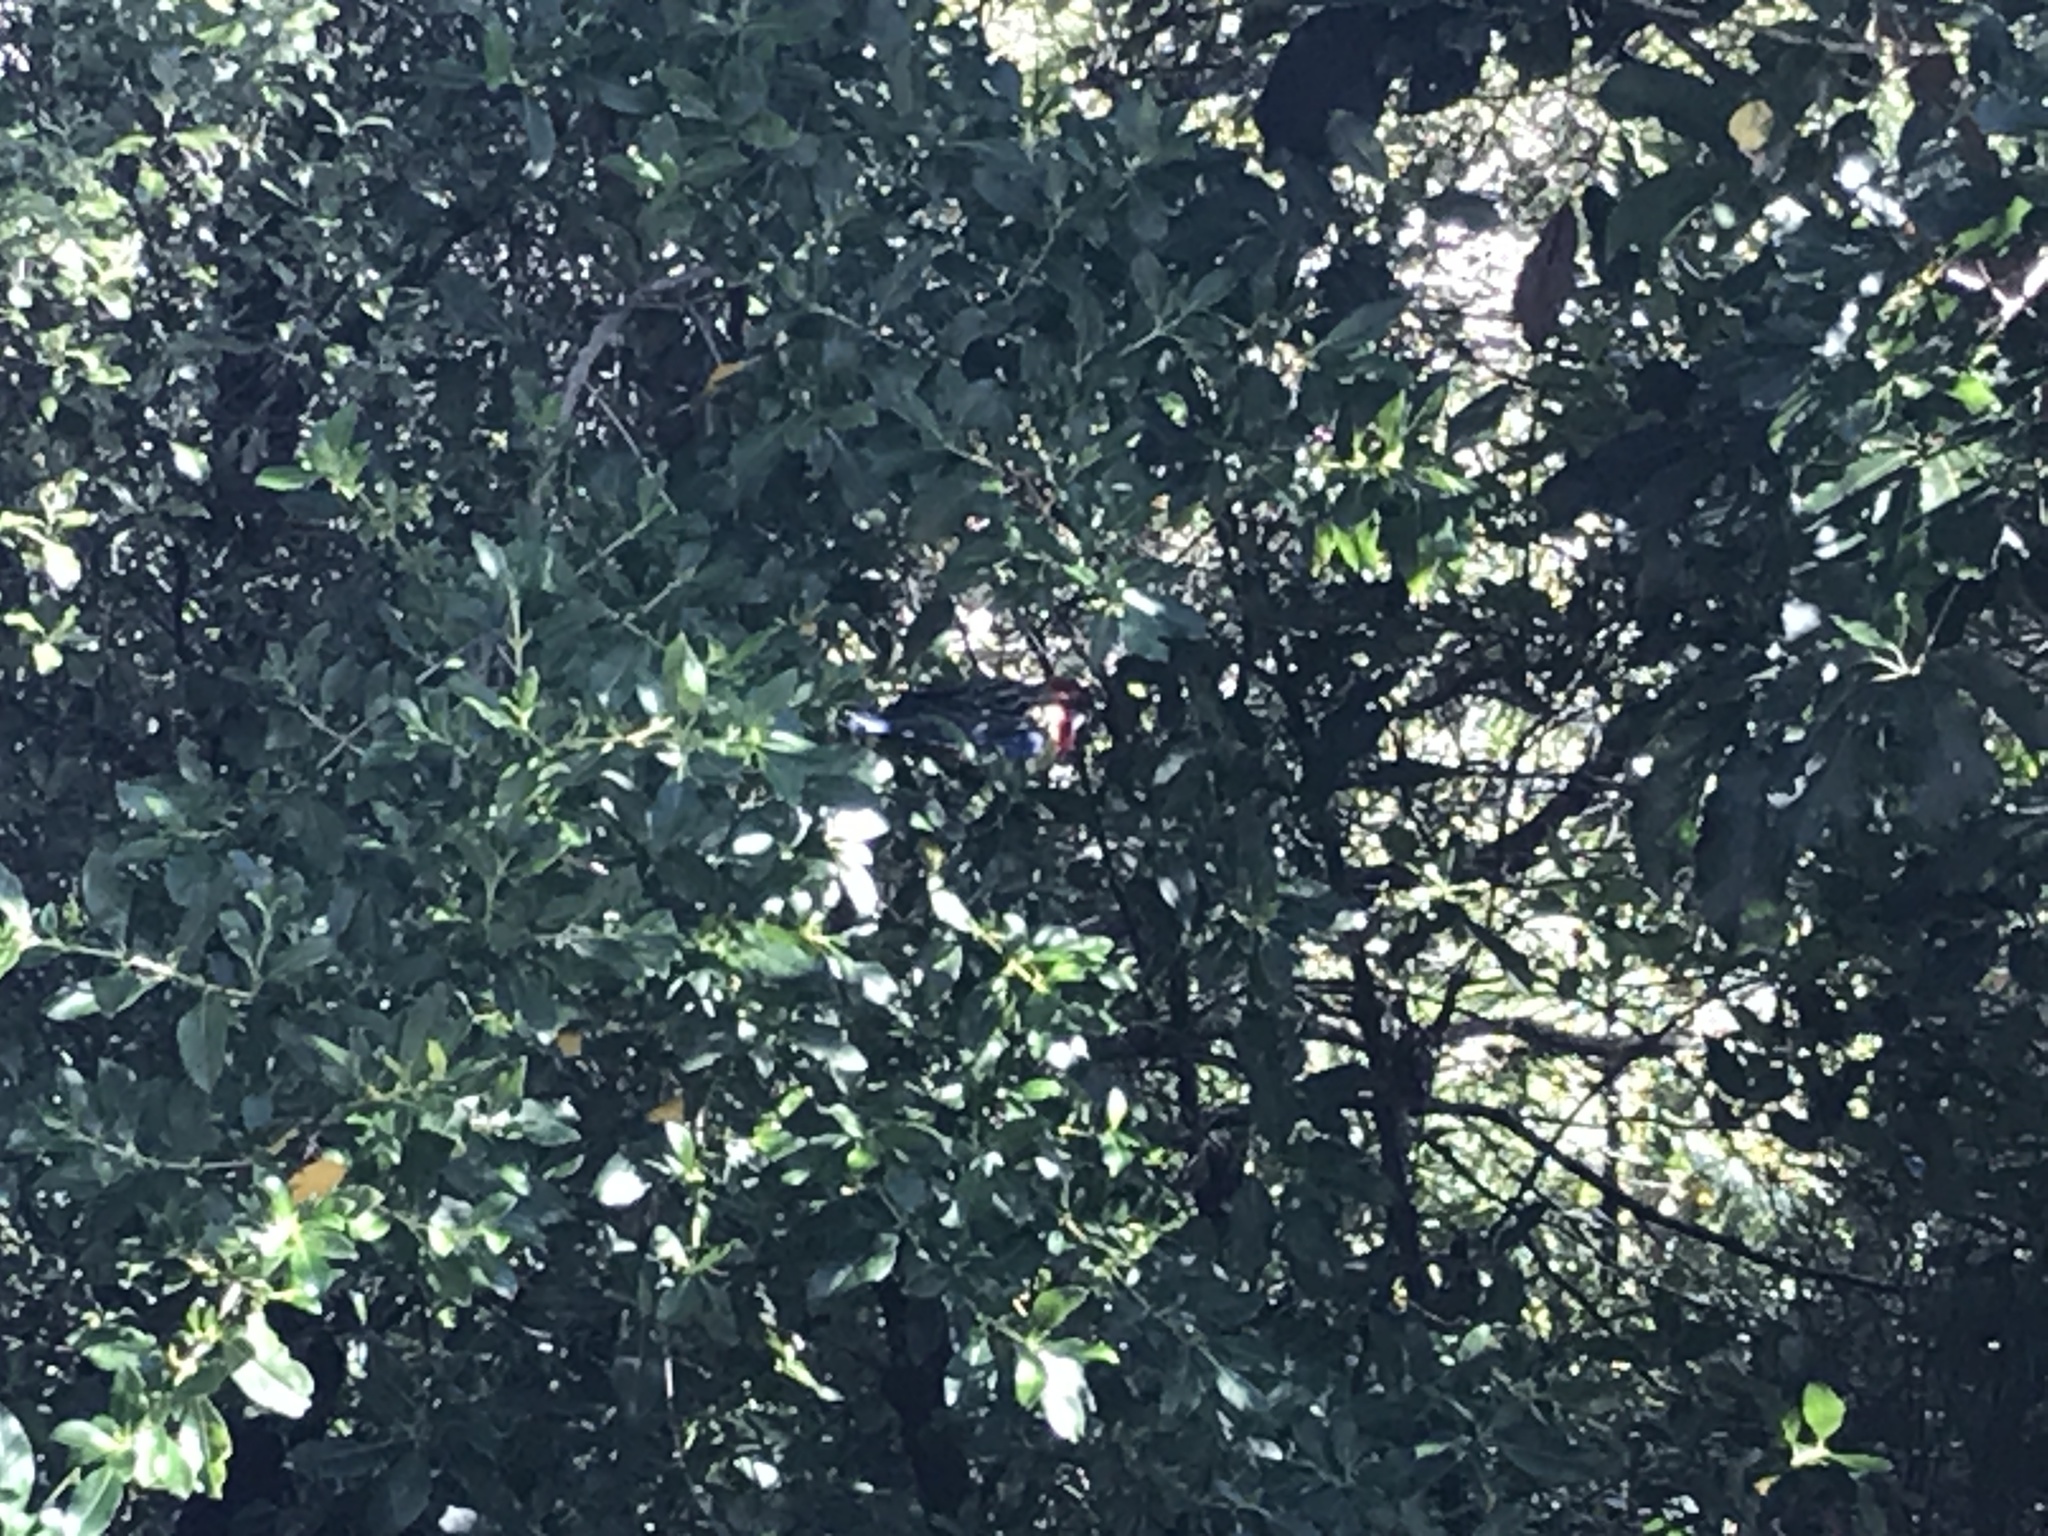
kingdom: Animalia
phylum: Chordata
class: Aves
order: Psittaciformes
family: Psittacidae
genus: Platycercus
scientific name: Platycercus eximius
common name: Eastern rosella
